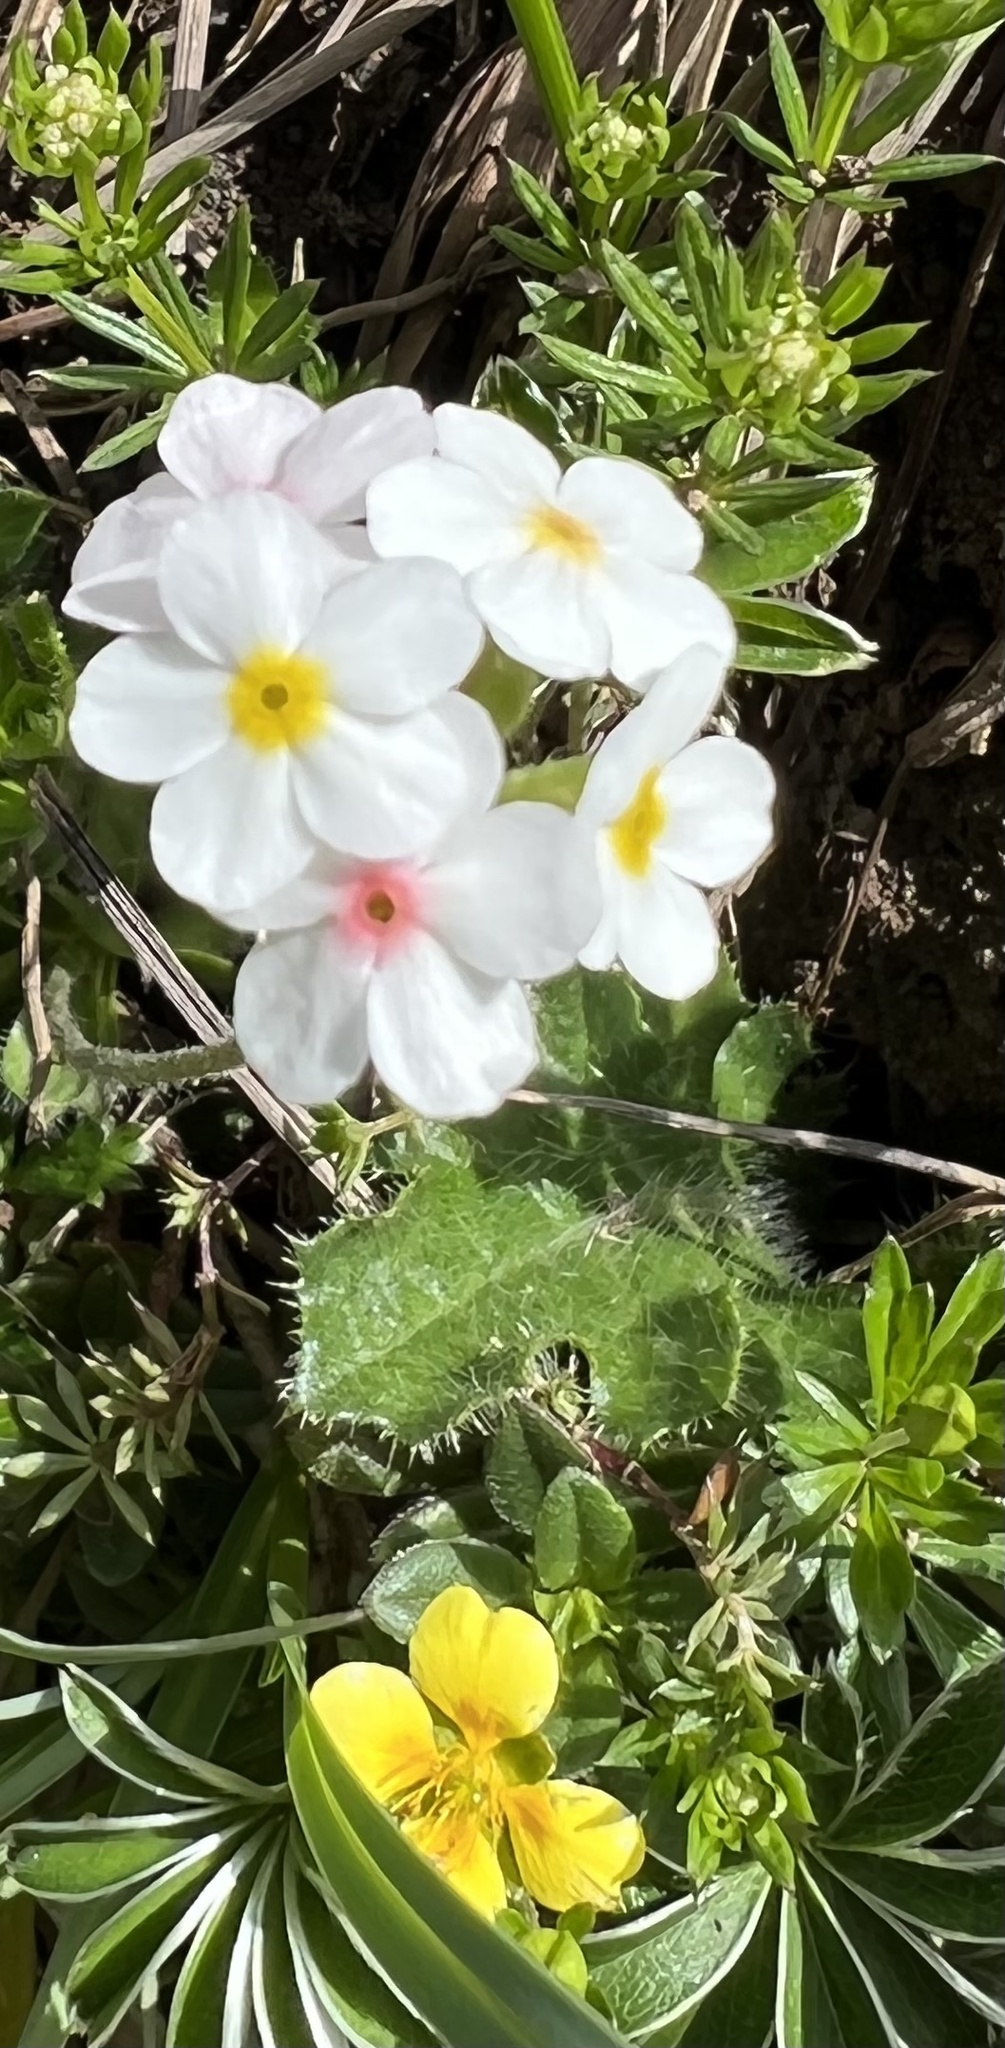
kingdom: Plantae
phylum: Tracheophyta
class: Magnoliopsida
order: Ericales
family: Primulaceae
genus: Androsace
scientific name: Androsace chamaejasme
